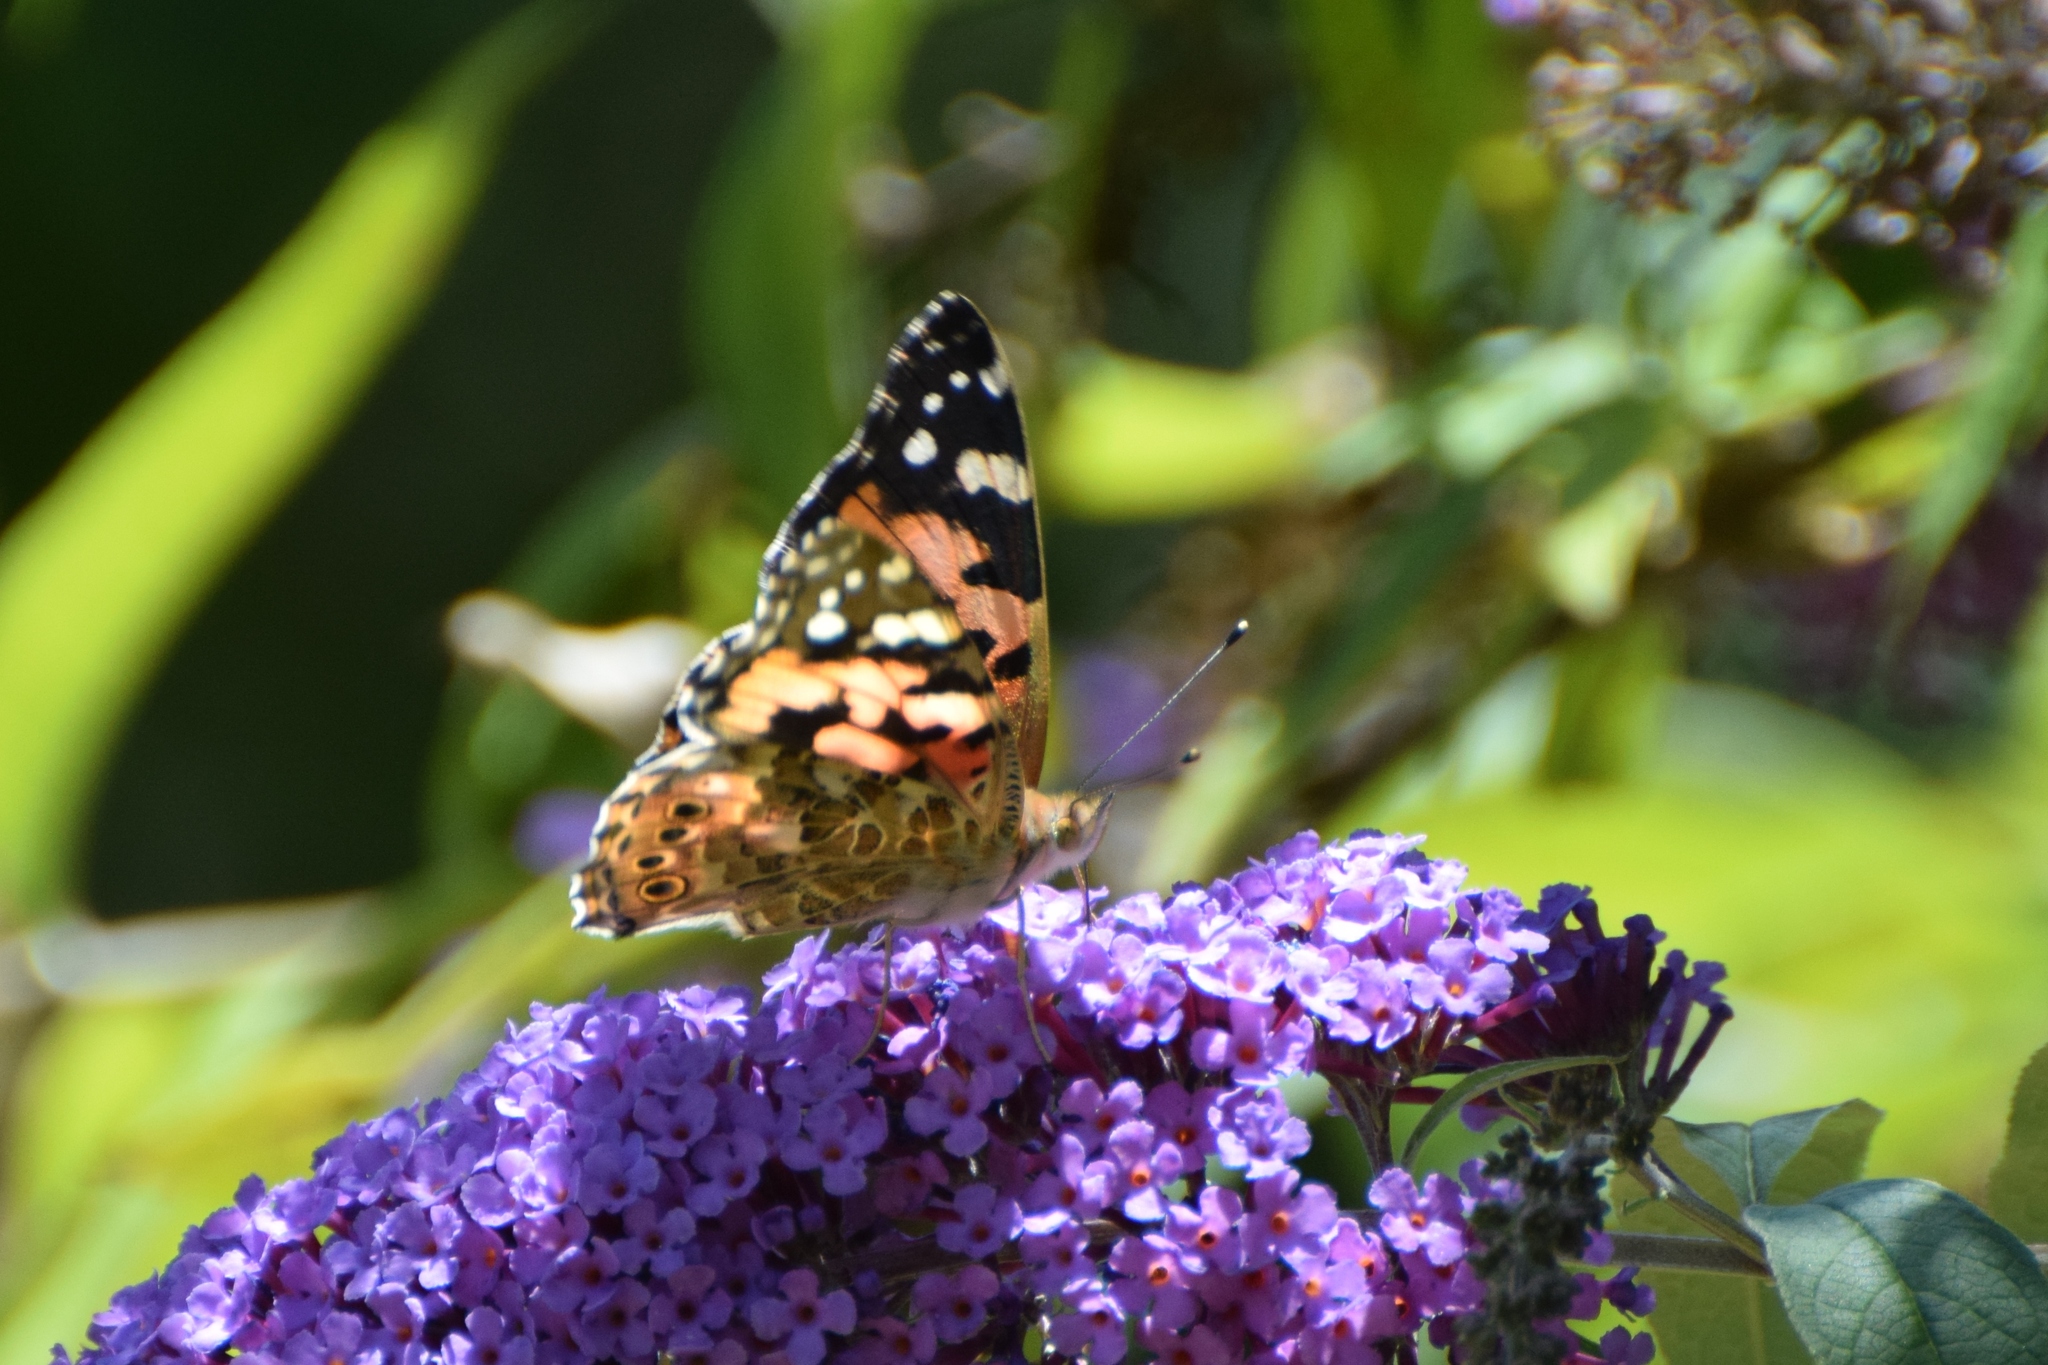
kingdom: Animalia
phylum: Arthropoda
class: Insecta
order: Lepidoptera
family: Nymphalidae
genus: Vanessa
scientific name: Vanessa cardui
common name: Painted lady
